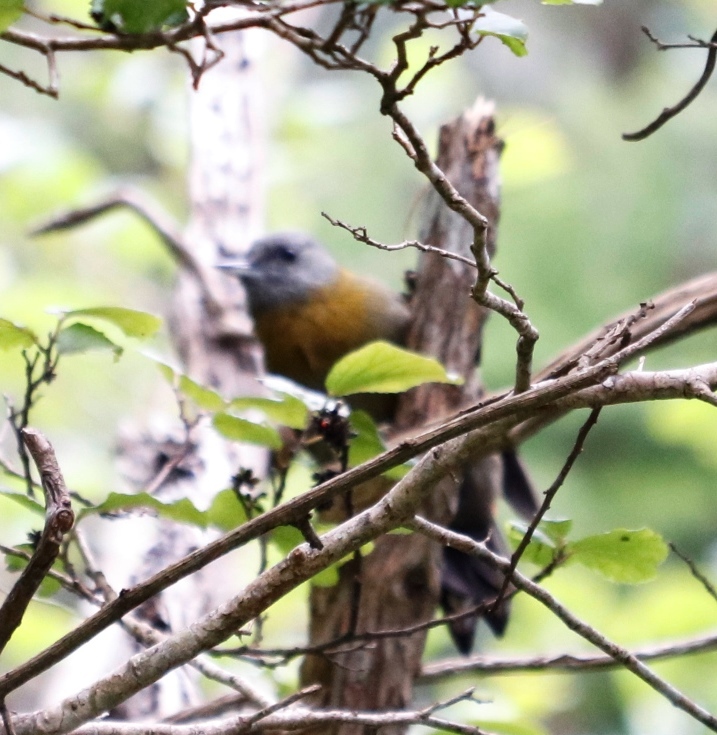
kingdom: Animalia
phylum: Chordata
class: Aves
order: Piciformes
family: Picidae
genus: Dendropicos
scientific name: Dendropicos griseocephalus
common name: Olive woodpecker
